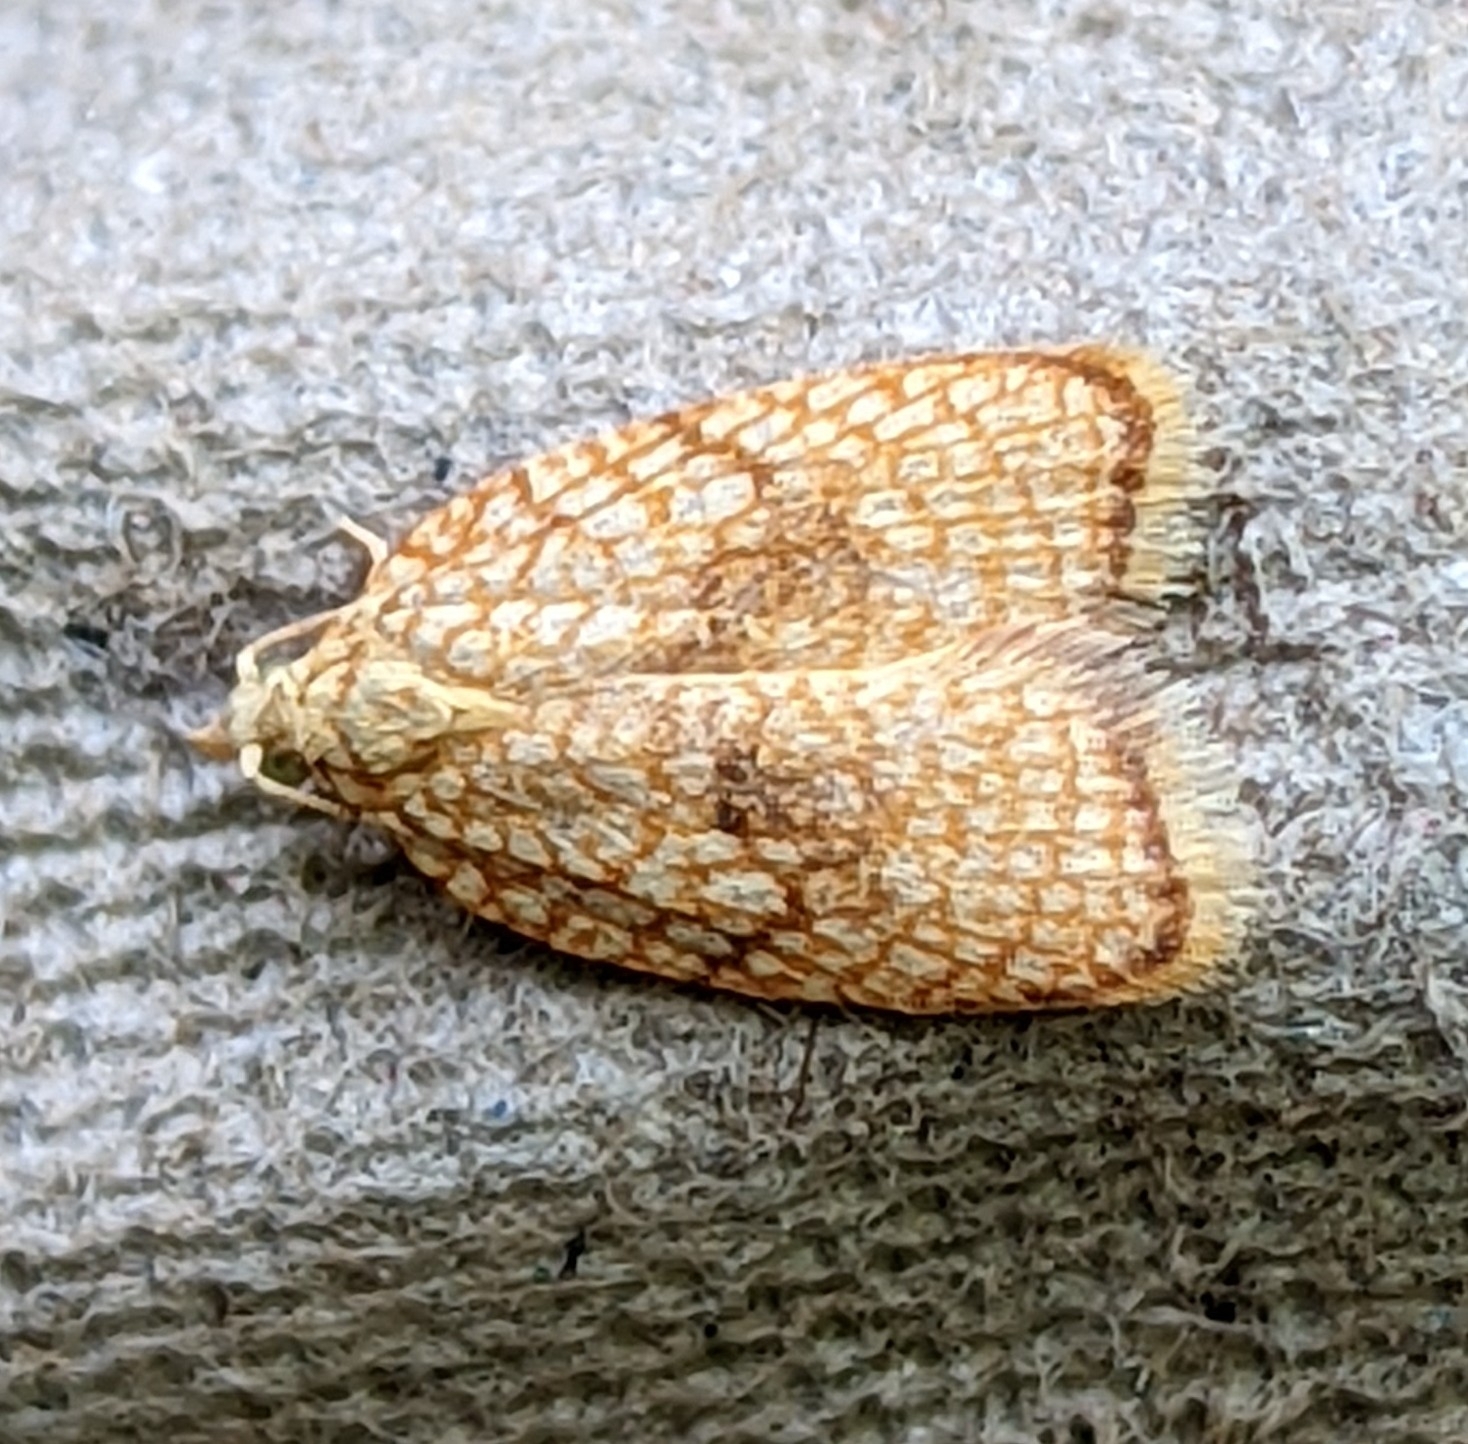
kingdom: Animalia
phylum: Arthropoda
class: Insecta
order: Lepidoptera
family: Tortricidae
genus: Acleris
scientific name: Acleris forsskaleana
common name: Maple button
